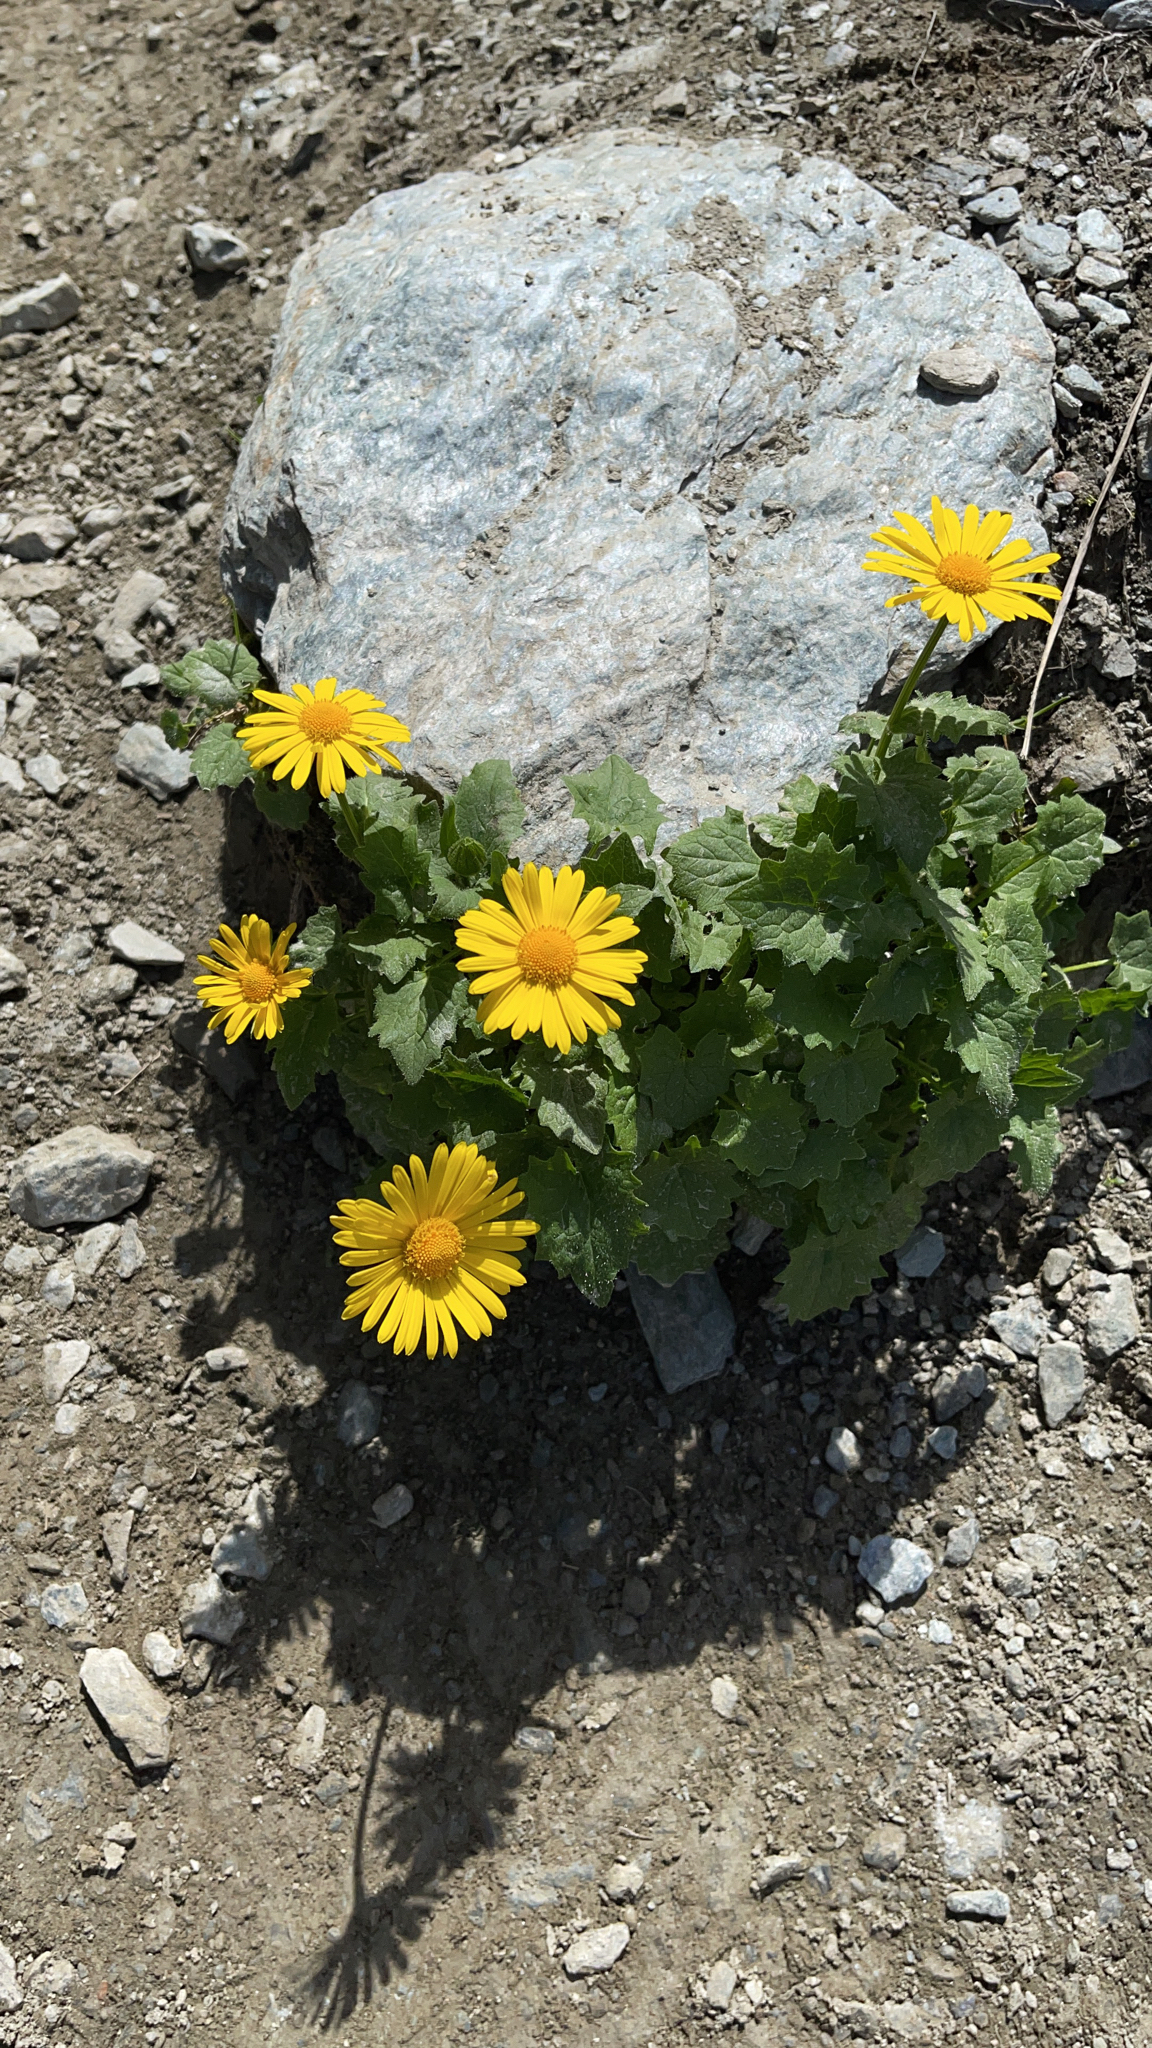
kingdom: Plantae
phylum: Tracheophyta
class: Magnoliopsida
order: Asterales
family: Asteraceae
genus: Doronicum
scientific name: Doronicum grandiflorum
